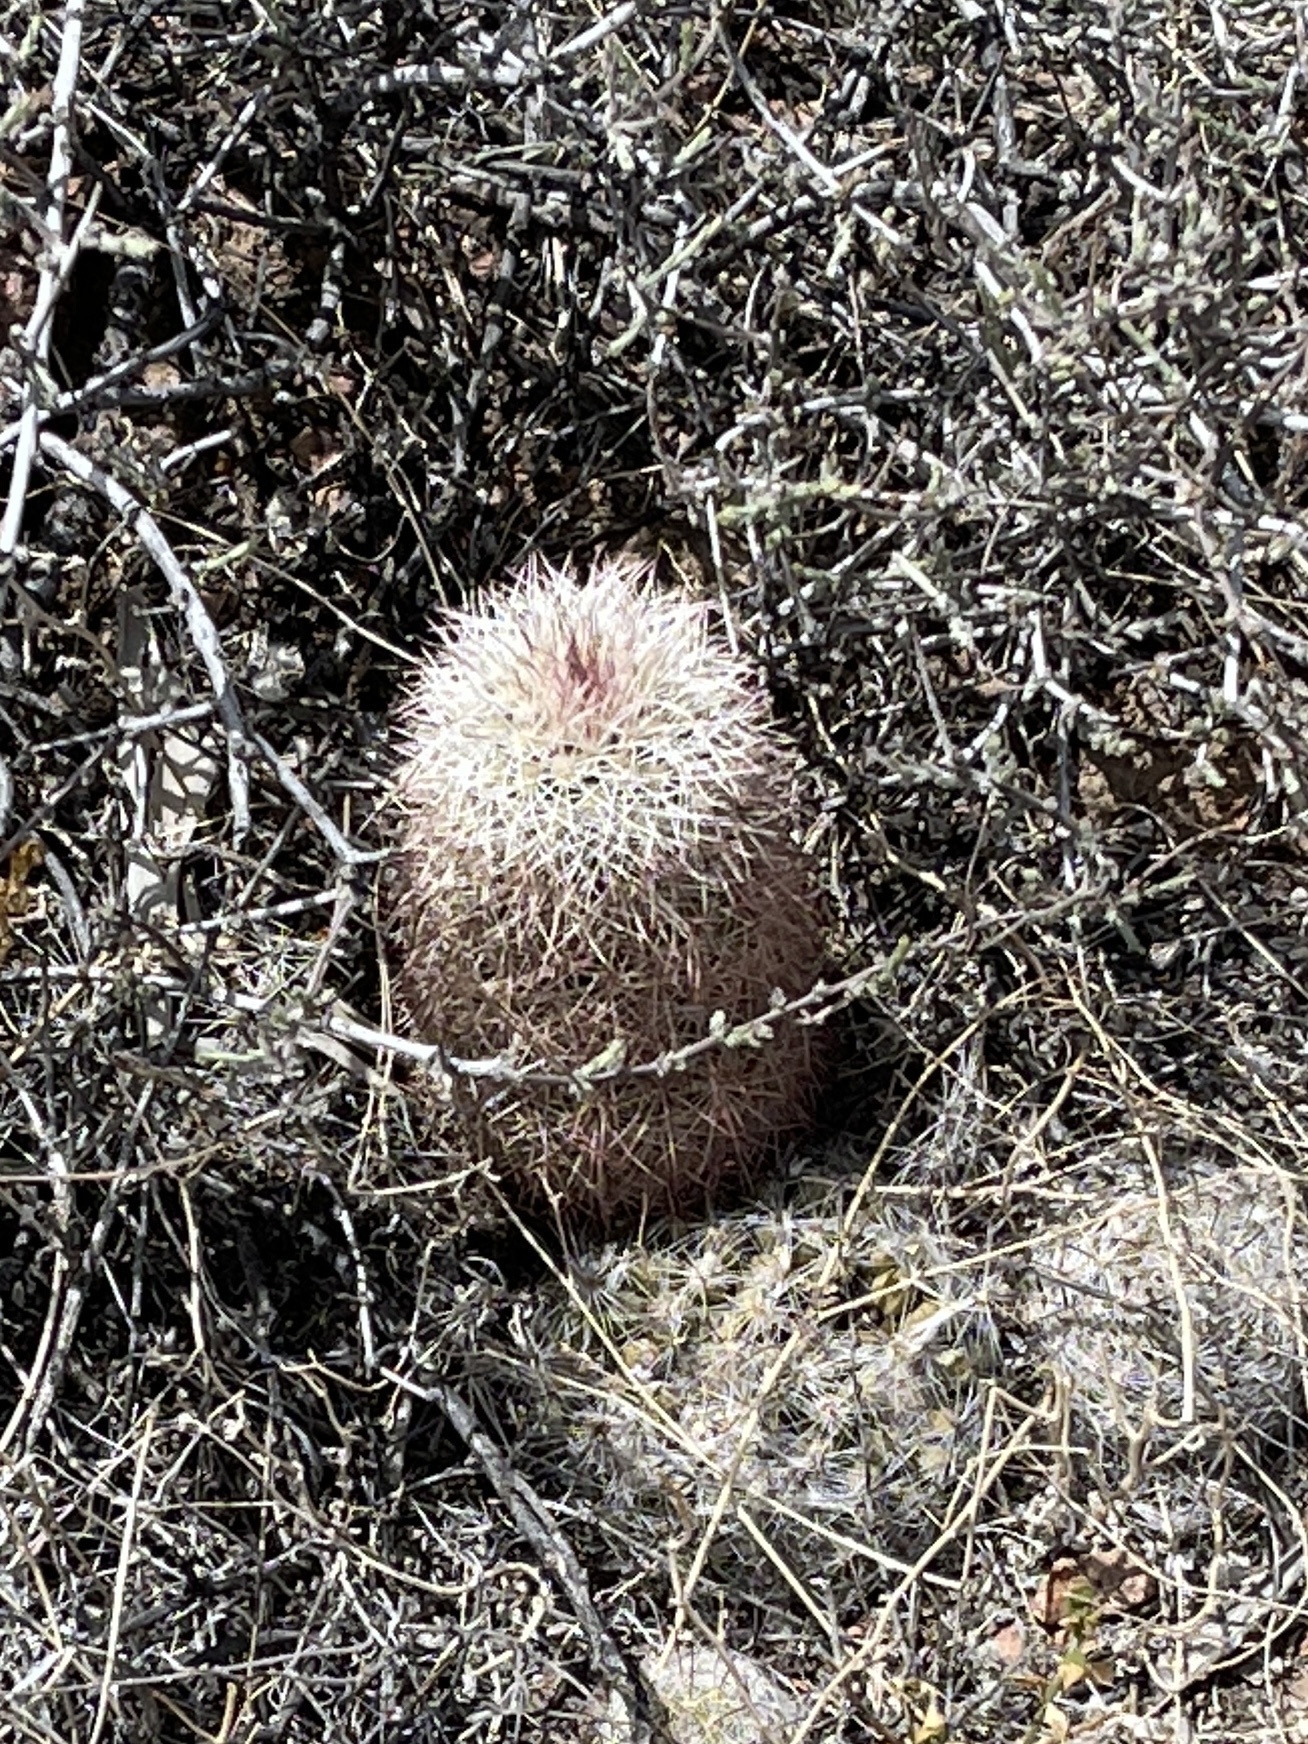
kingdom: Plantae
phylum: Tracheophyta
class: Magnoliopsida
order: Caryophyllales
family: Cactaceae
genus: Echinocereus
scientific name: Echinocereus dasyacanthus
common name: Spiny hedgehog cactus
